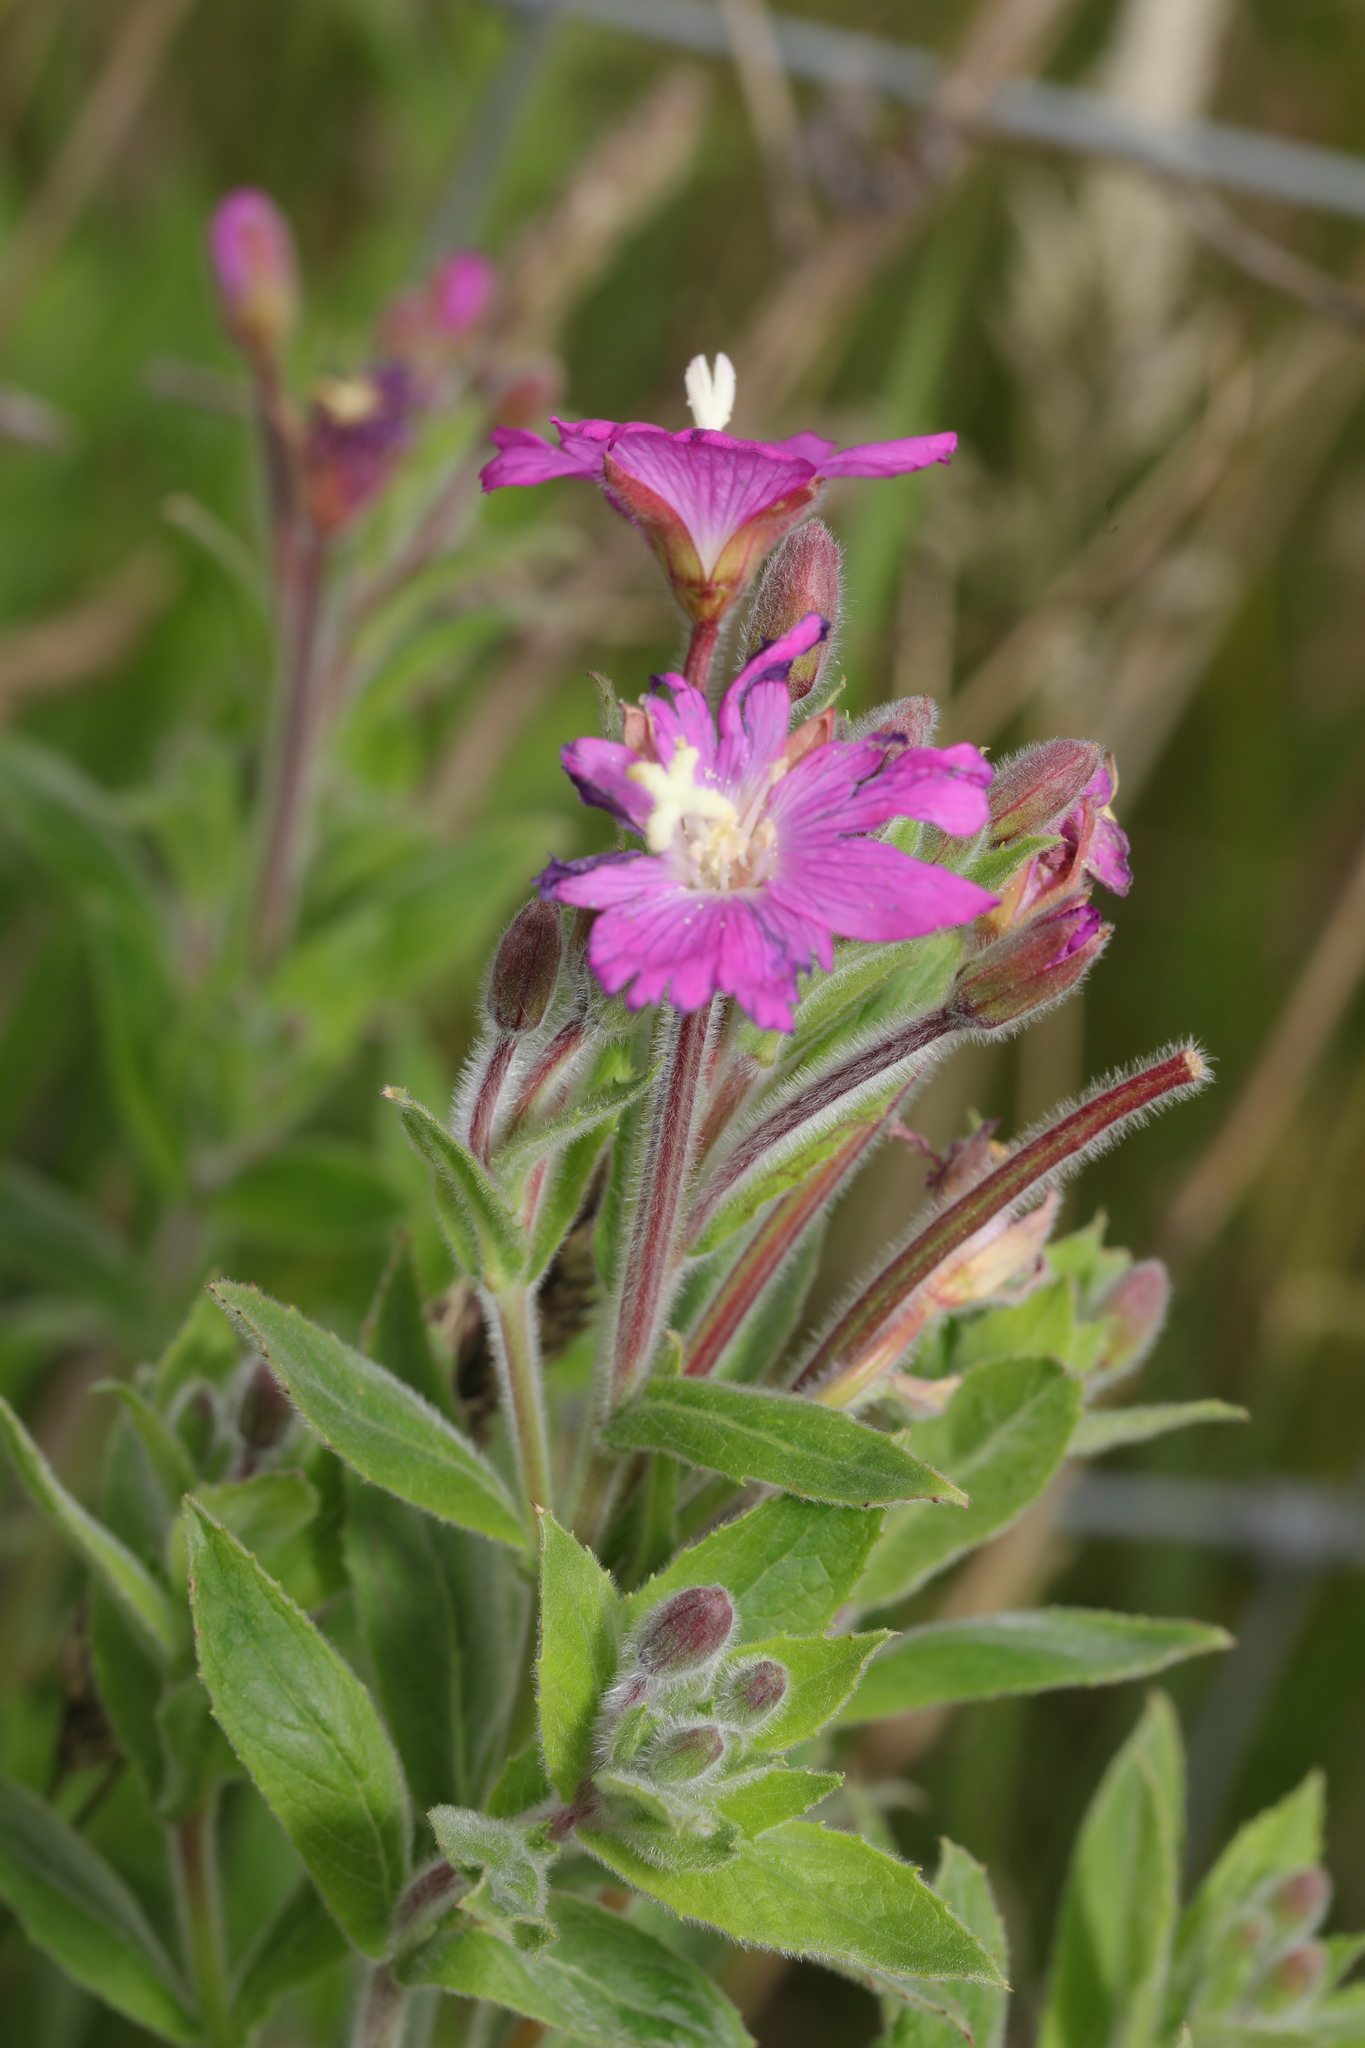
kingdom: Plantae
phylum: Tracheophyta
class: Magnoliopsida
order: Myrtales
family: Onagraceae
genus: Epilobium
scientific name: Epilobium hirsutum
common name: Great willowherb
